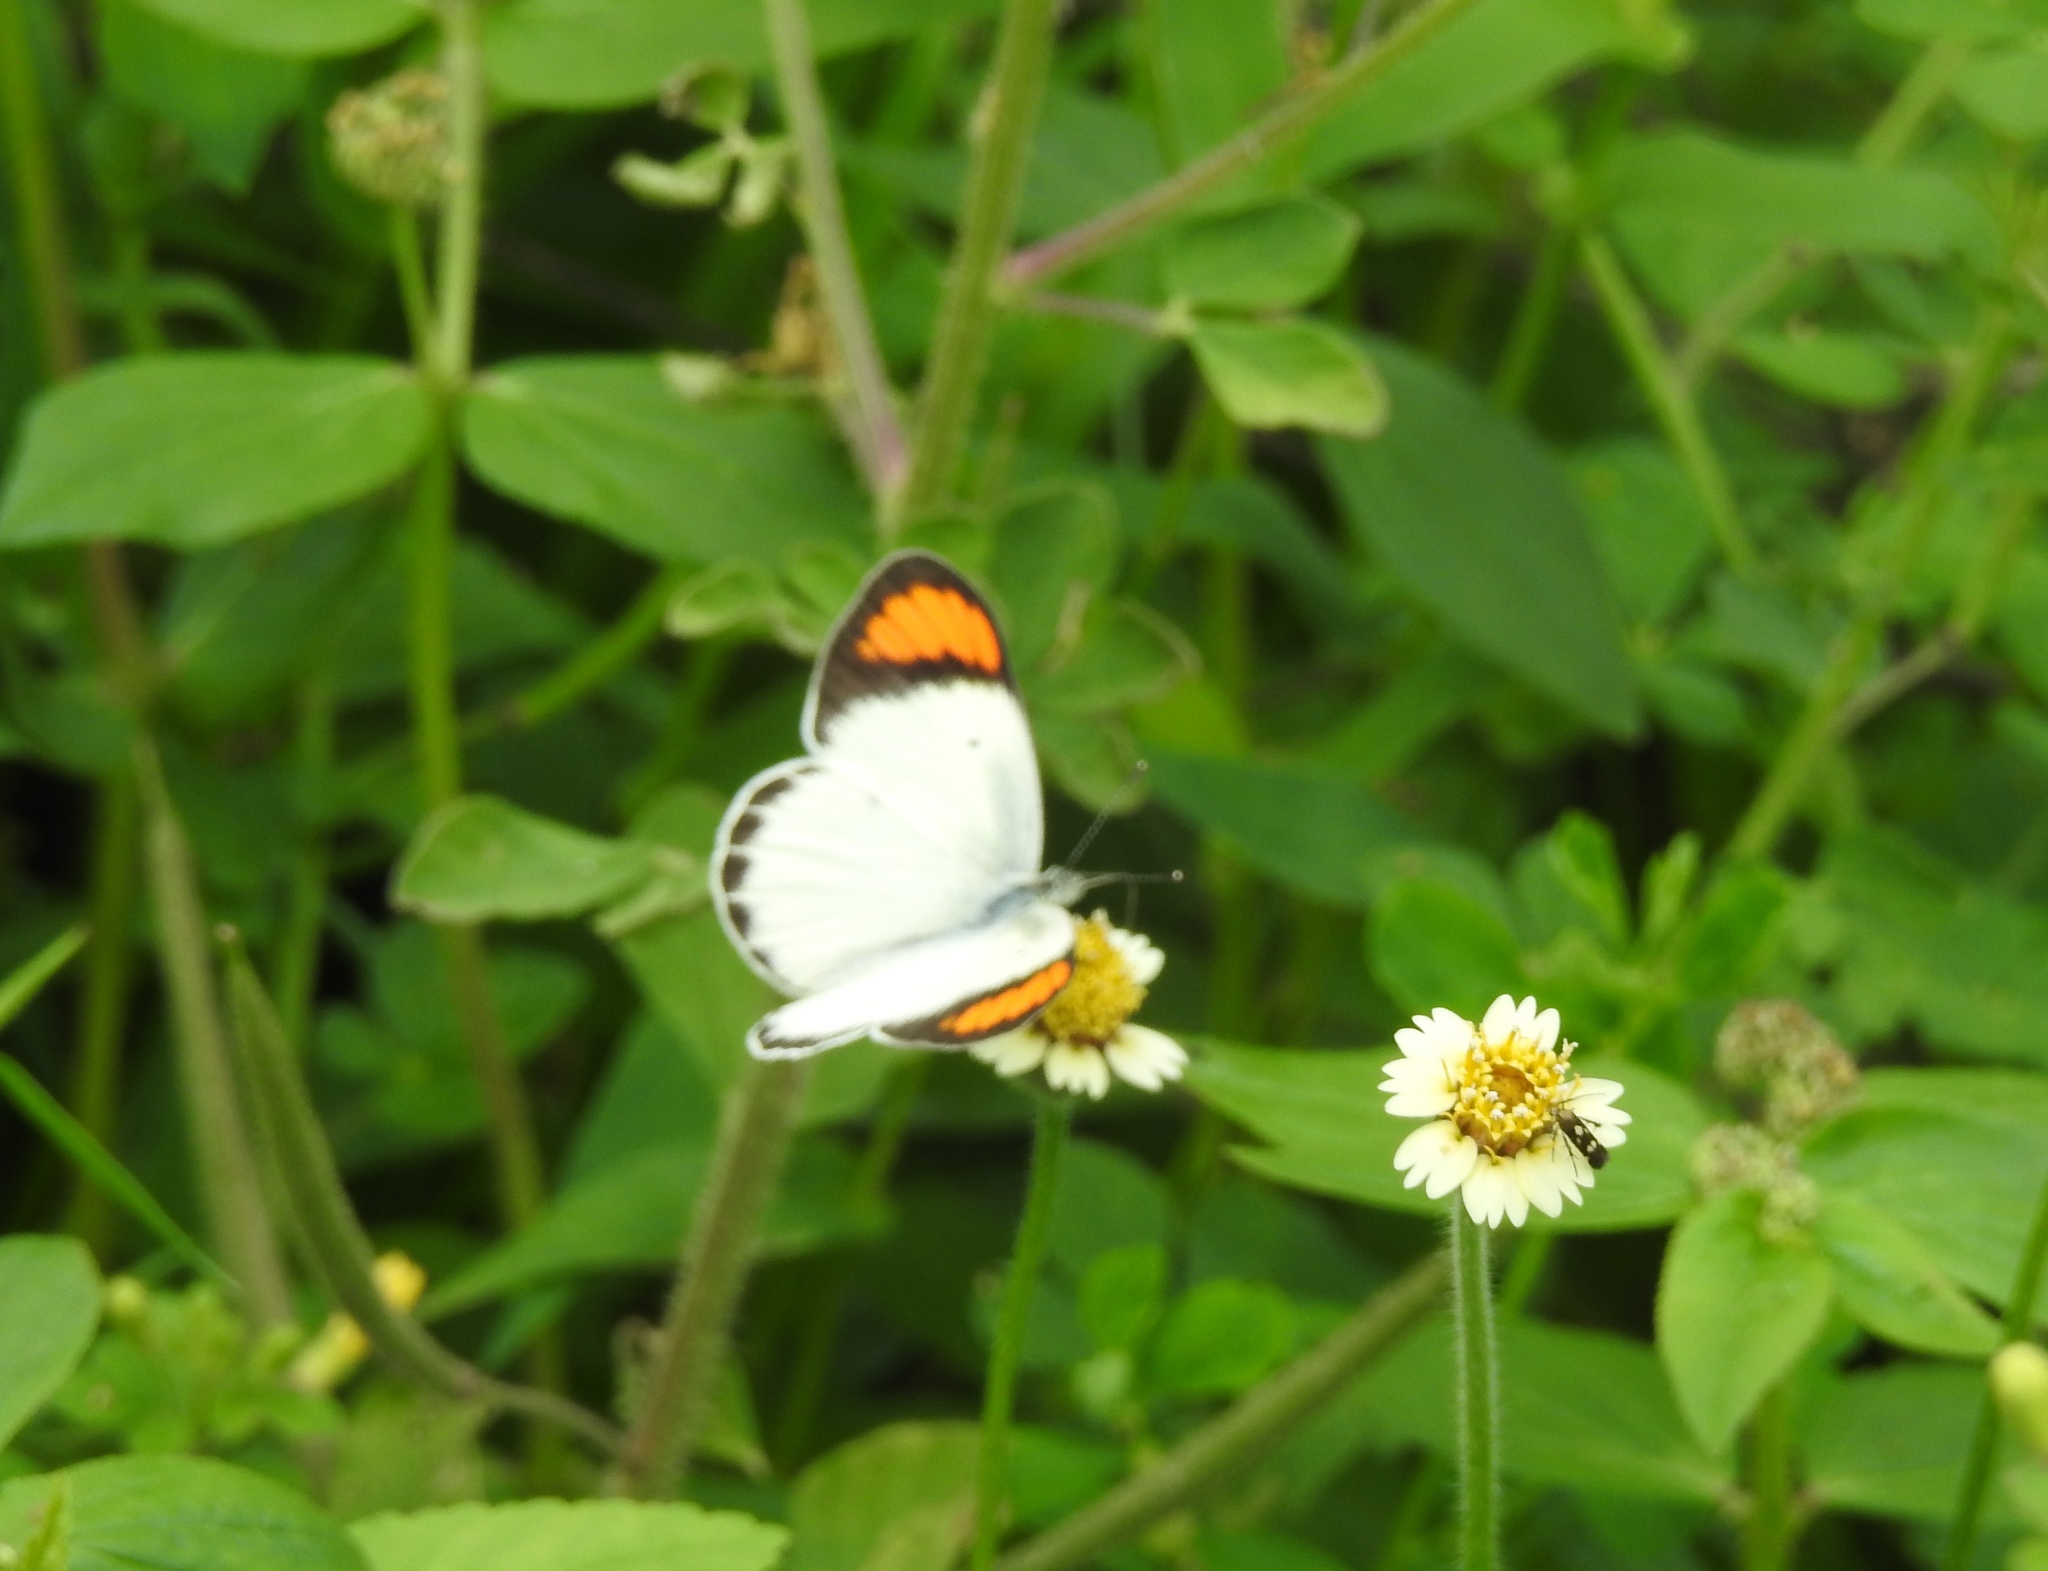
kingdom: Animalia
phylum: Arthropoda
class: Insecta
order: Lepidoptera
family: Pieridae
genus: Colotis
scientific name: Colotis etrida
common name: Little orange tip
